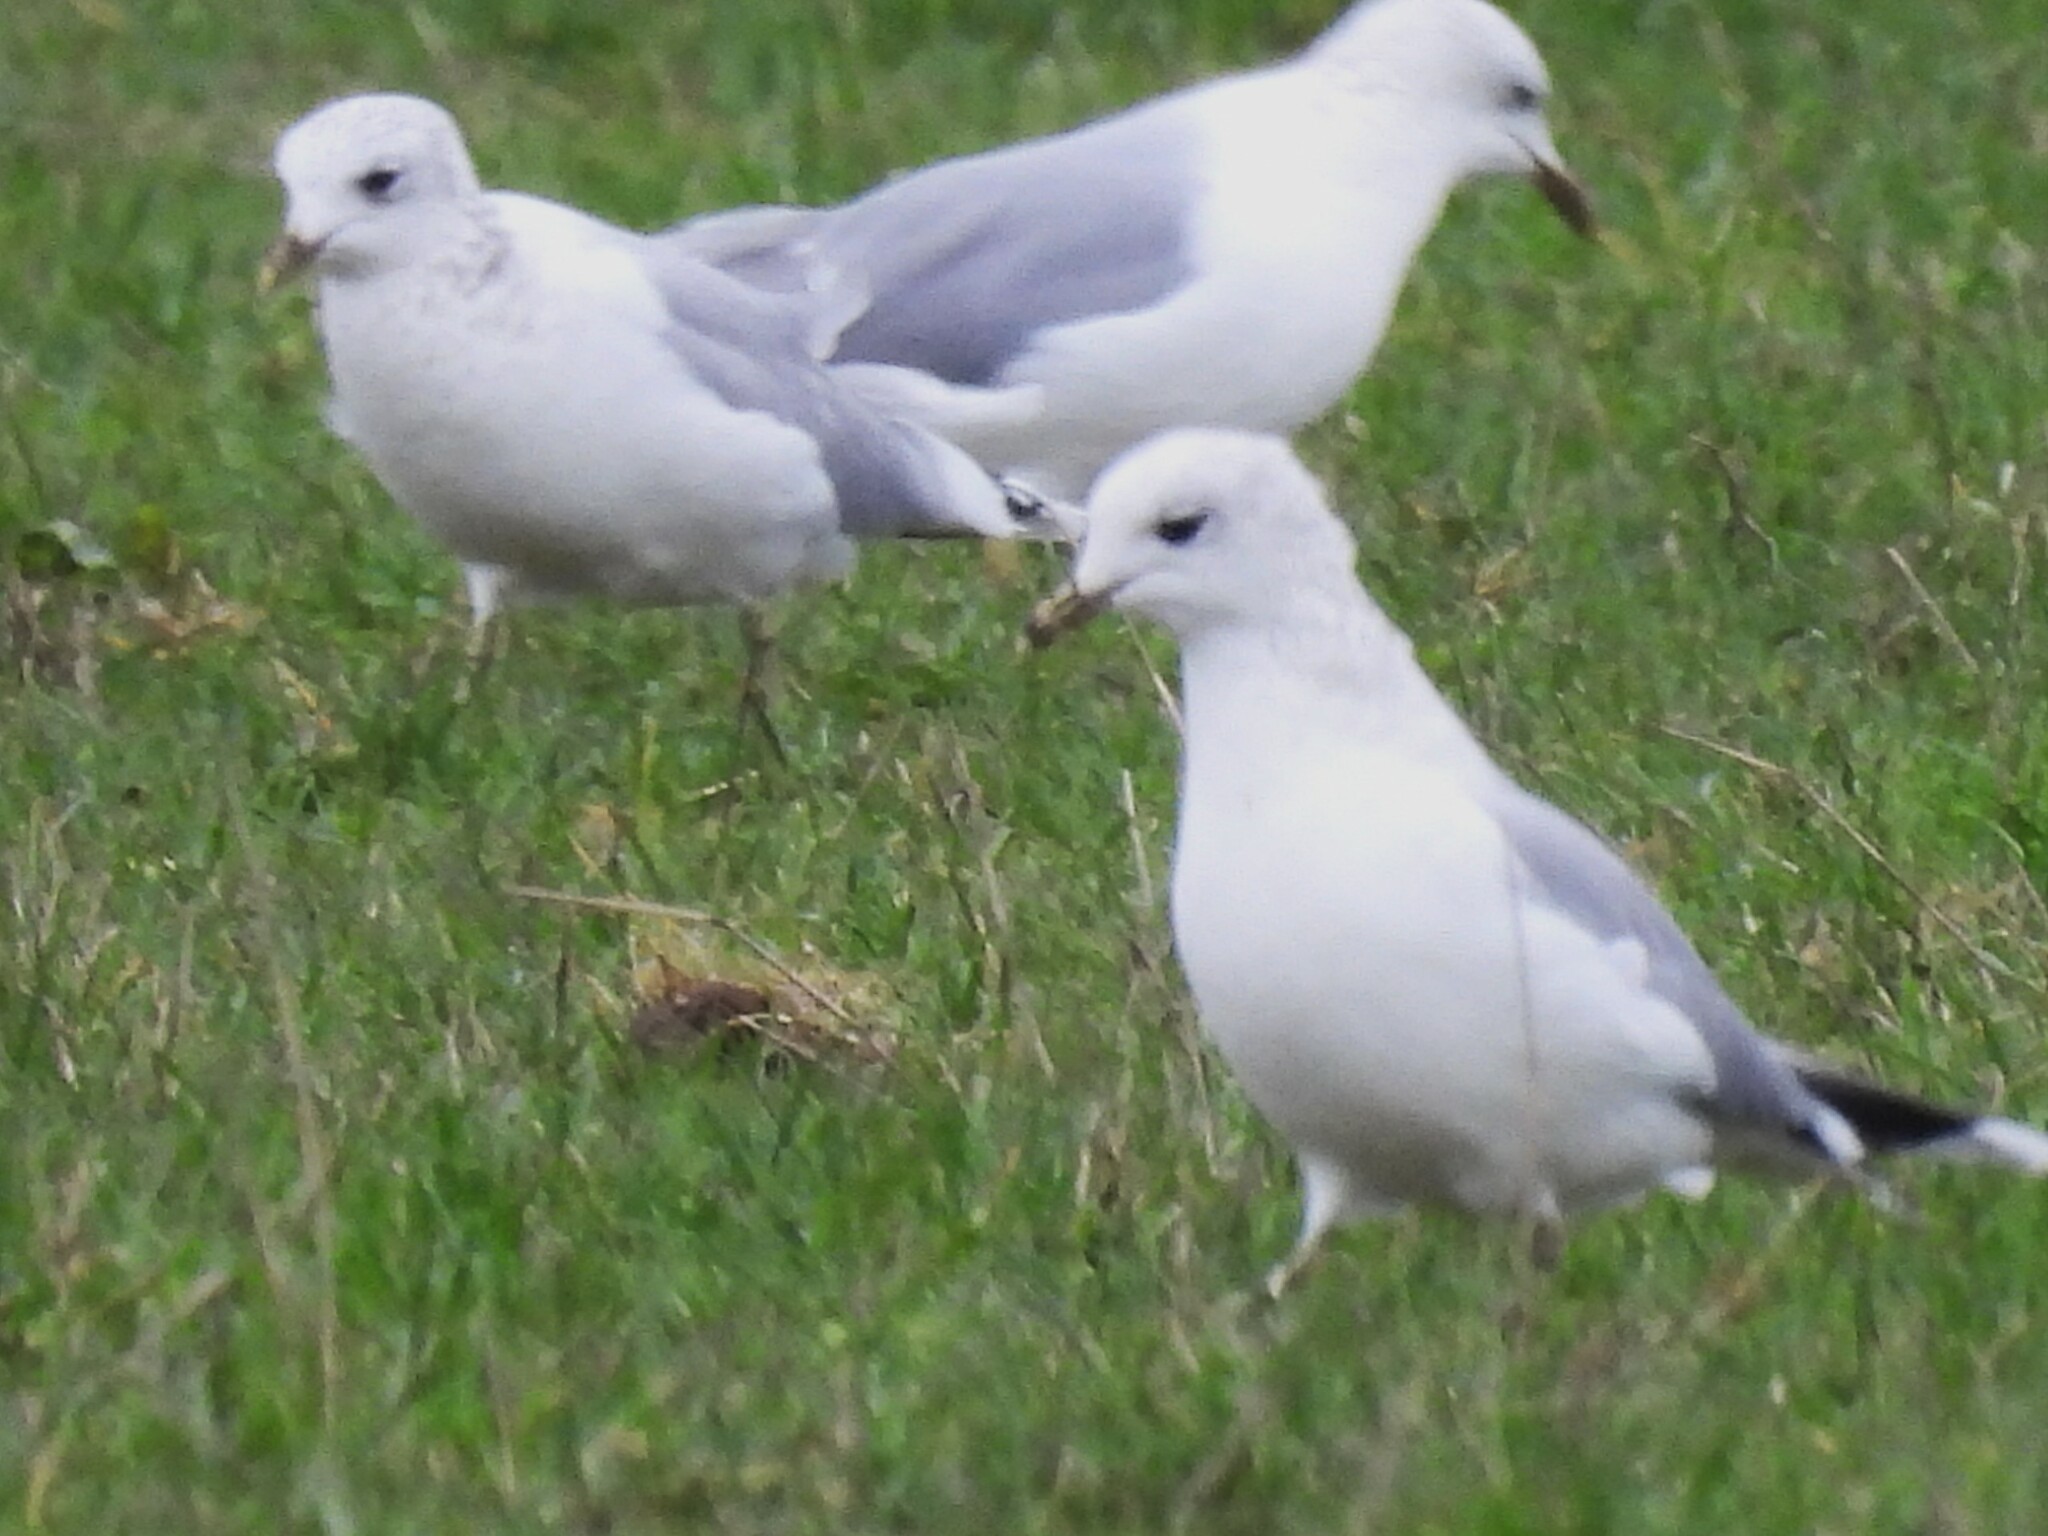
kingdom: Animalia
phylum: Chordata
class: Aves
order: Charadriiformes
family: Laridae
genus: Larus
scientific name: Larus canus
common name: Mew gull
